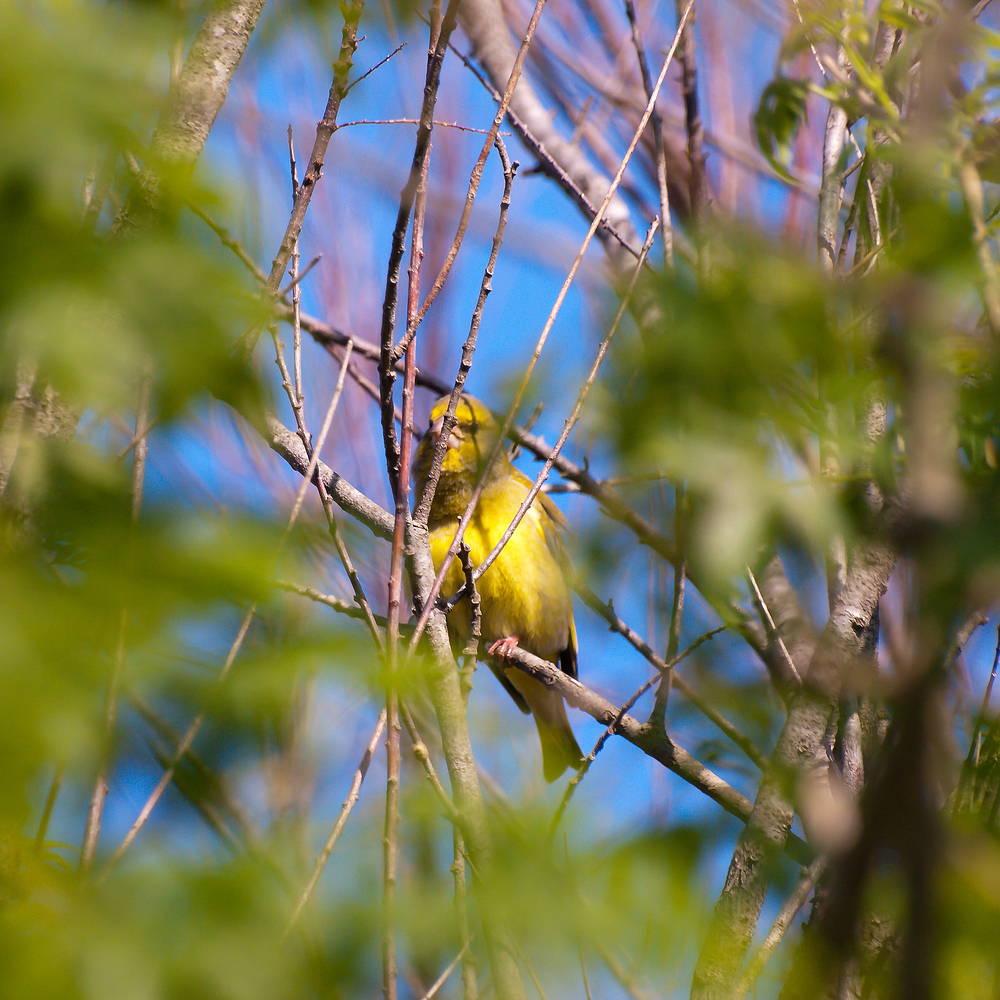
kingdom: Plantae
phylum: Tracheophyta
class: Liliopsida
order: Poales
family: Poaceae
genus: Chloris
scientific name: Chloris chloris
